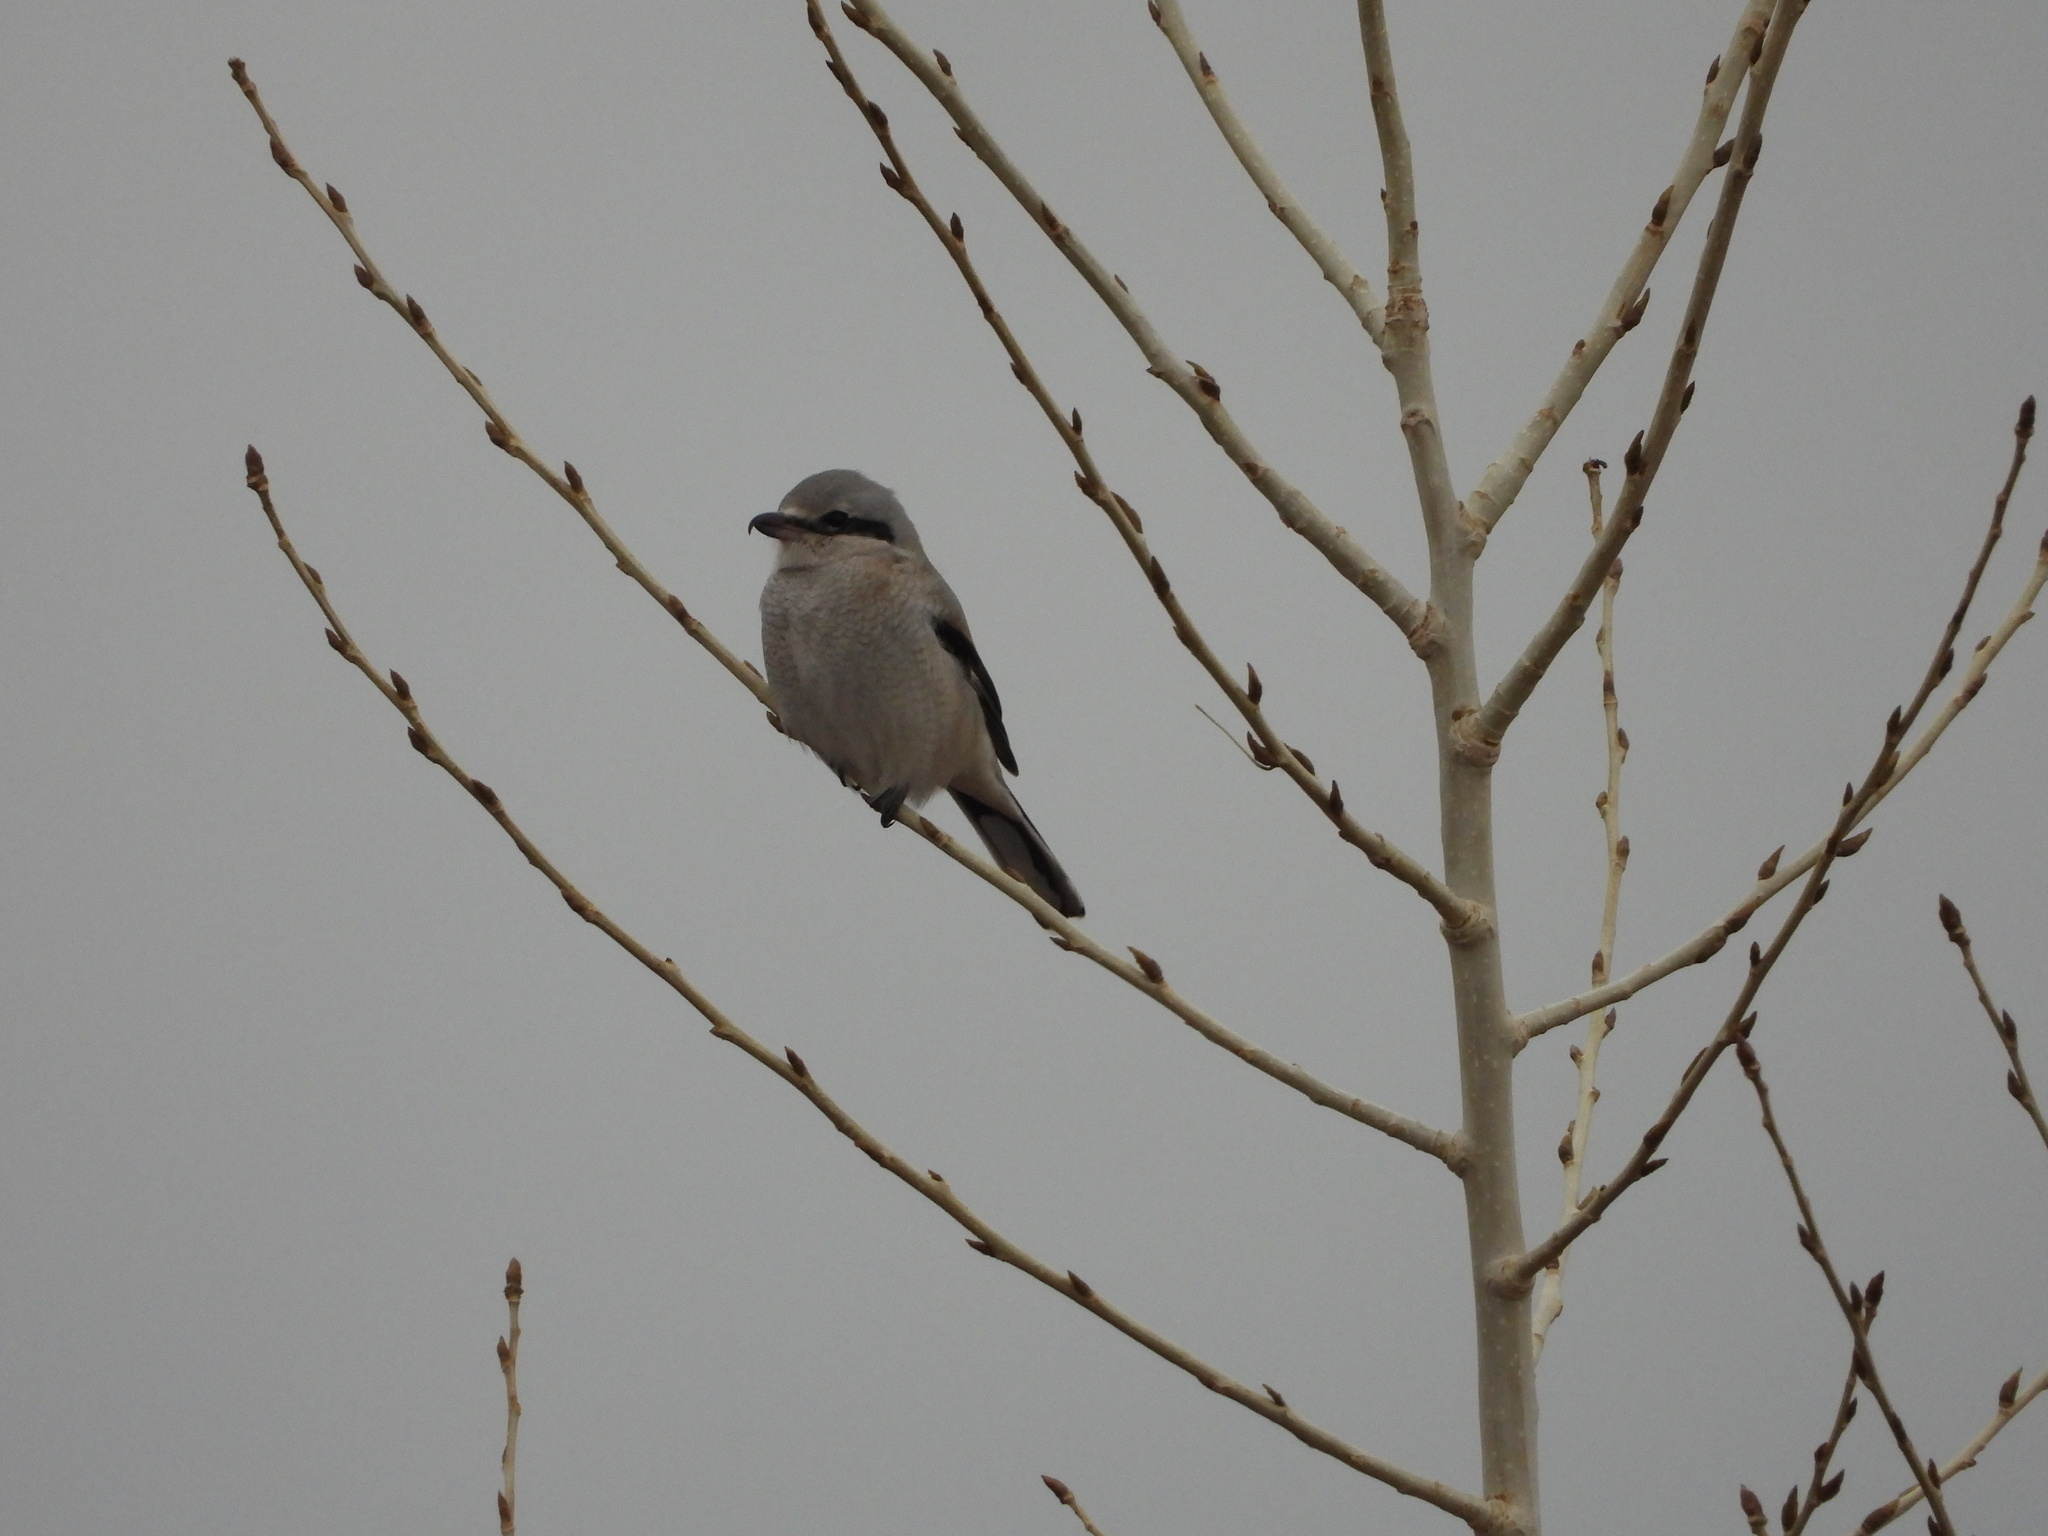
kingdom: Animalia
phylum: Chordata
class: Aves
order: Passeriformes
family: Laniidae
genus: Lanius
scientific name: Lanius borealis
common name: Northern shrike
